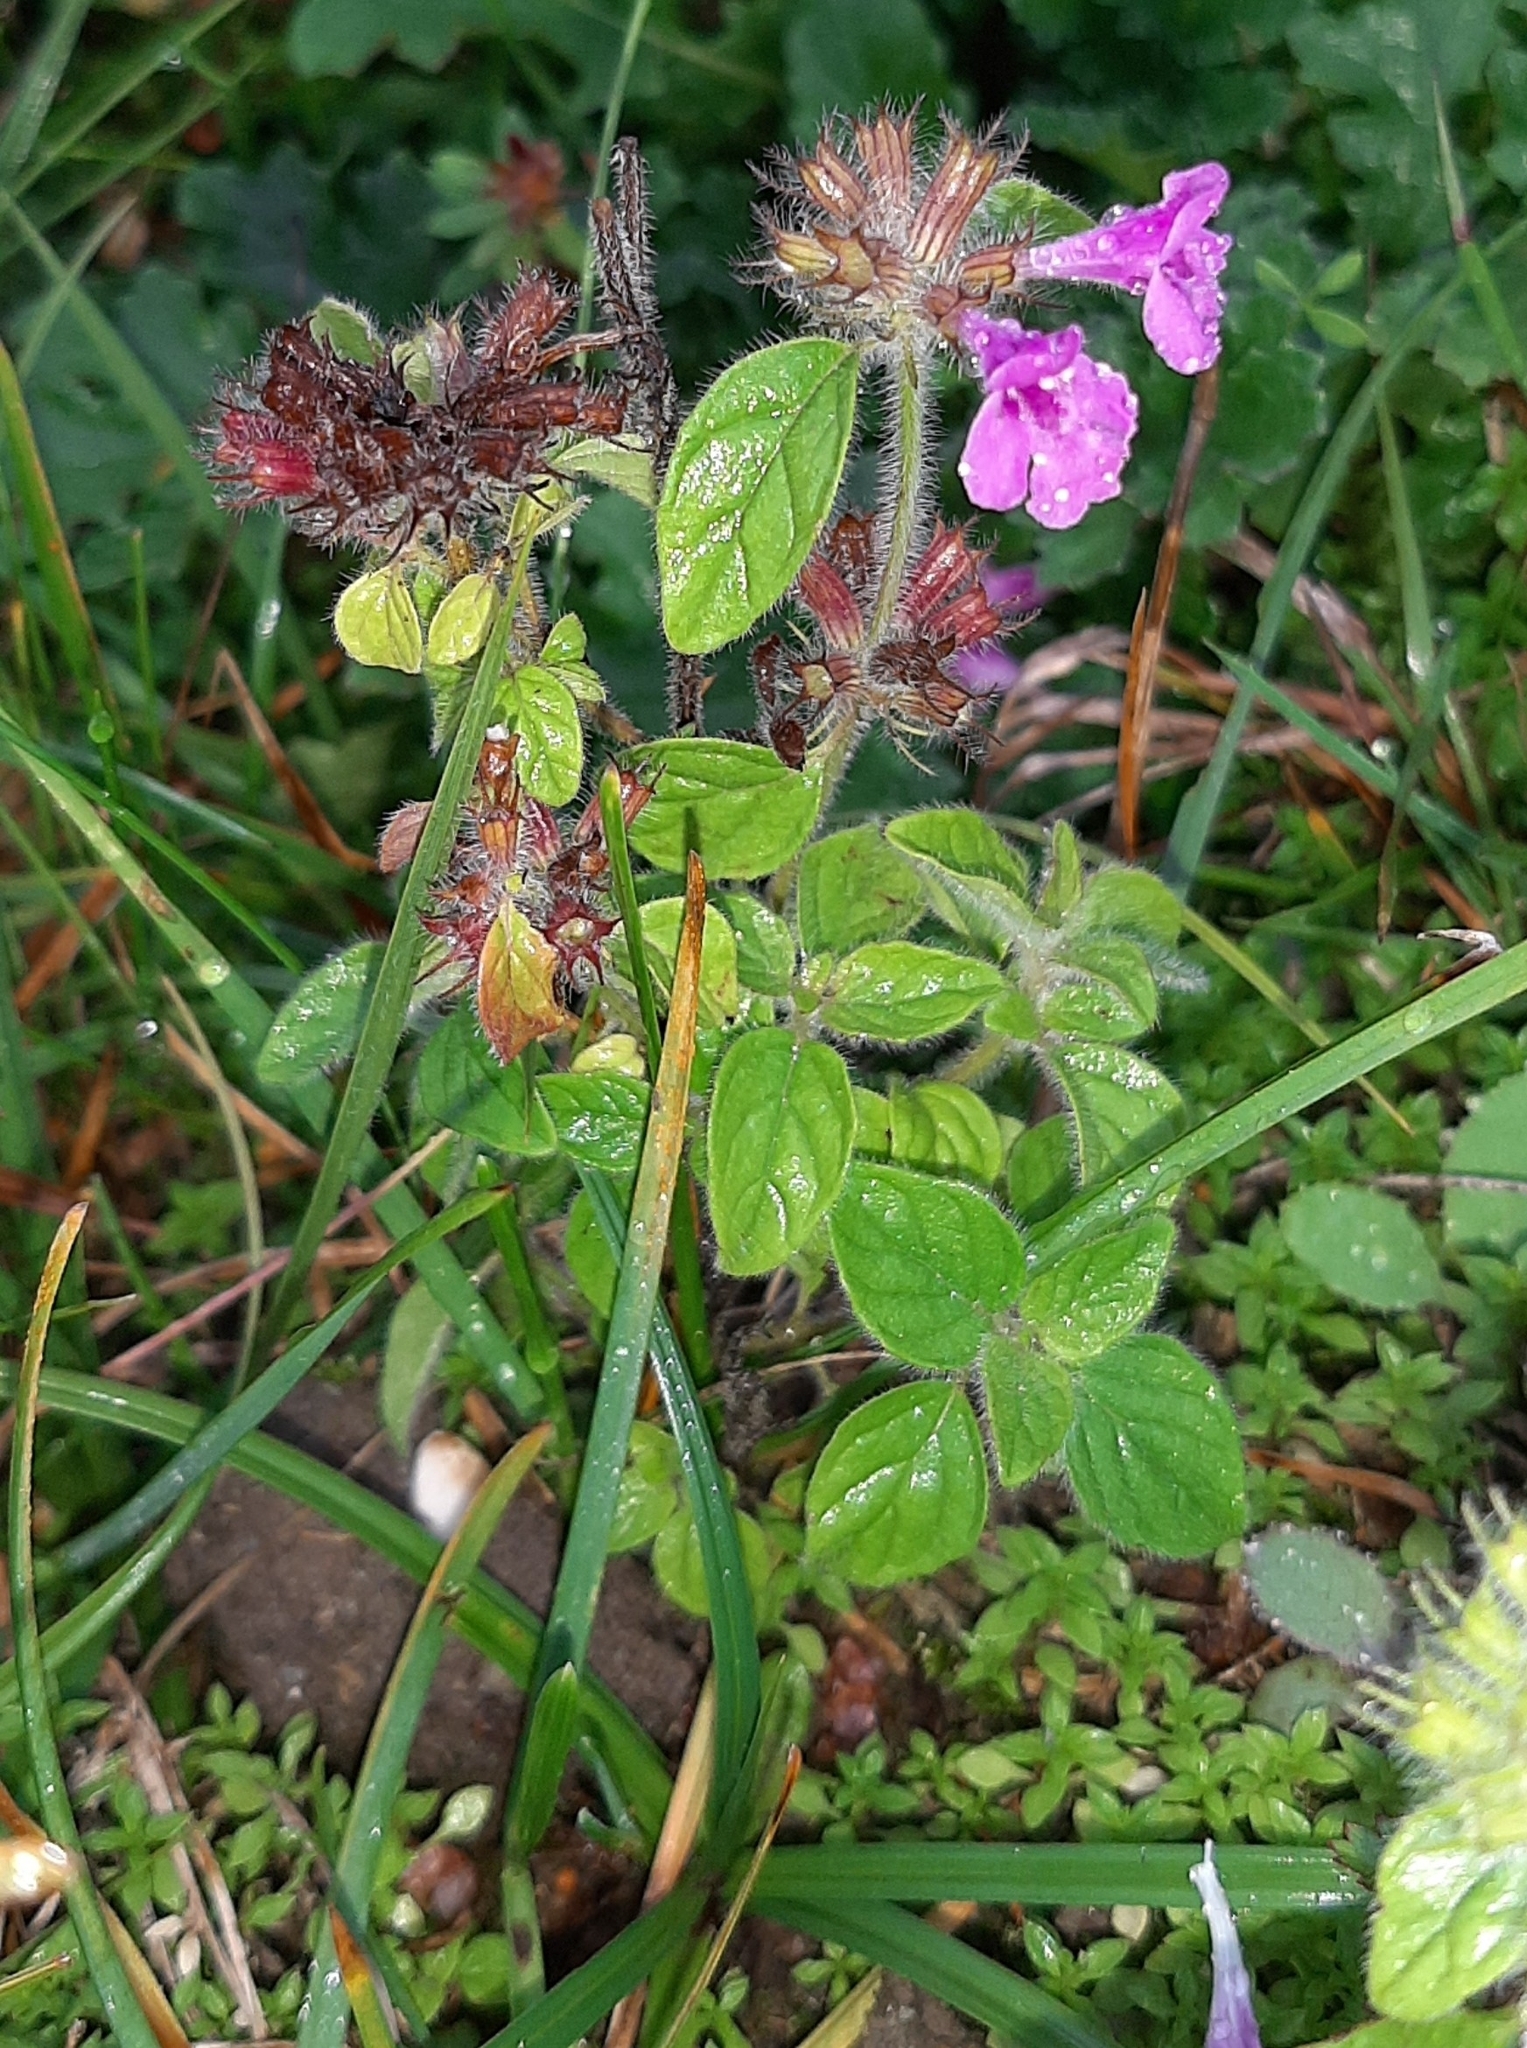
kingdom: Plantae
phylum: Tracheophyta
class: Magnoliopsida
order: Lamiales
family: Lamiaceae
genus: Clinopodium
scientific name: Clinopodium vulgare
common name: Wild basil
